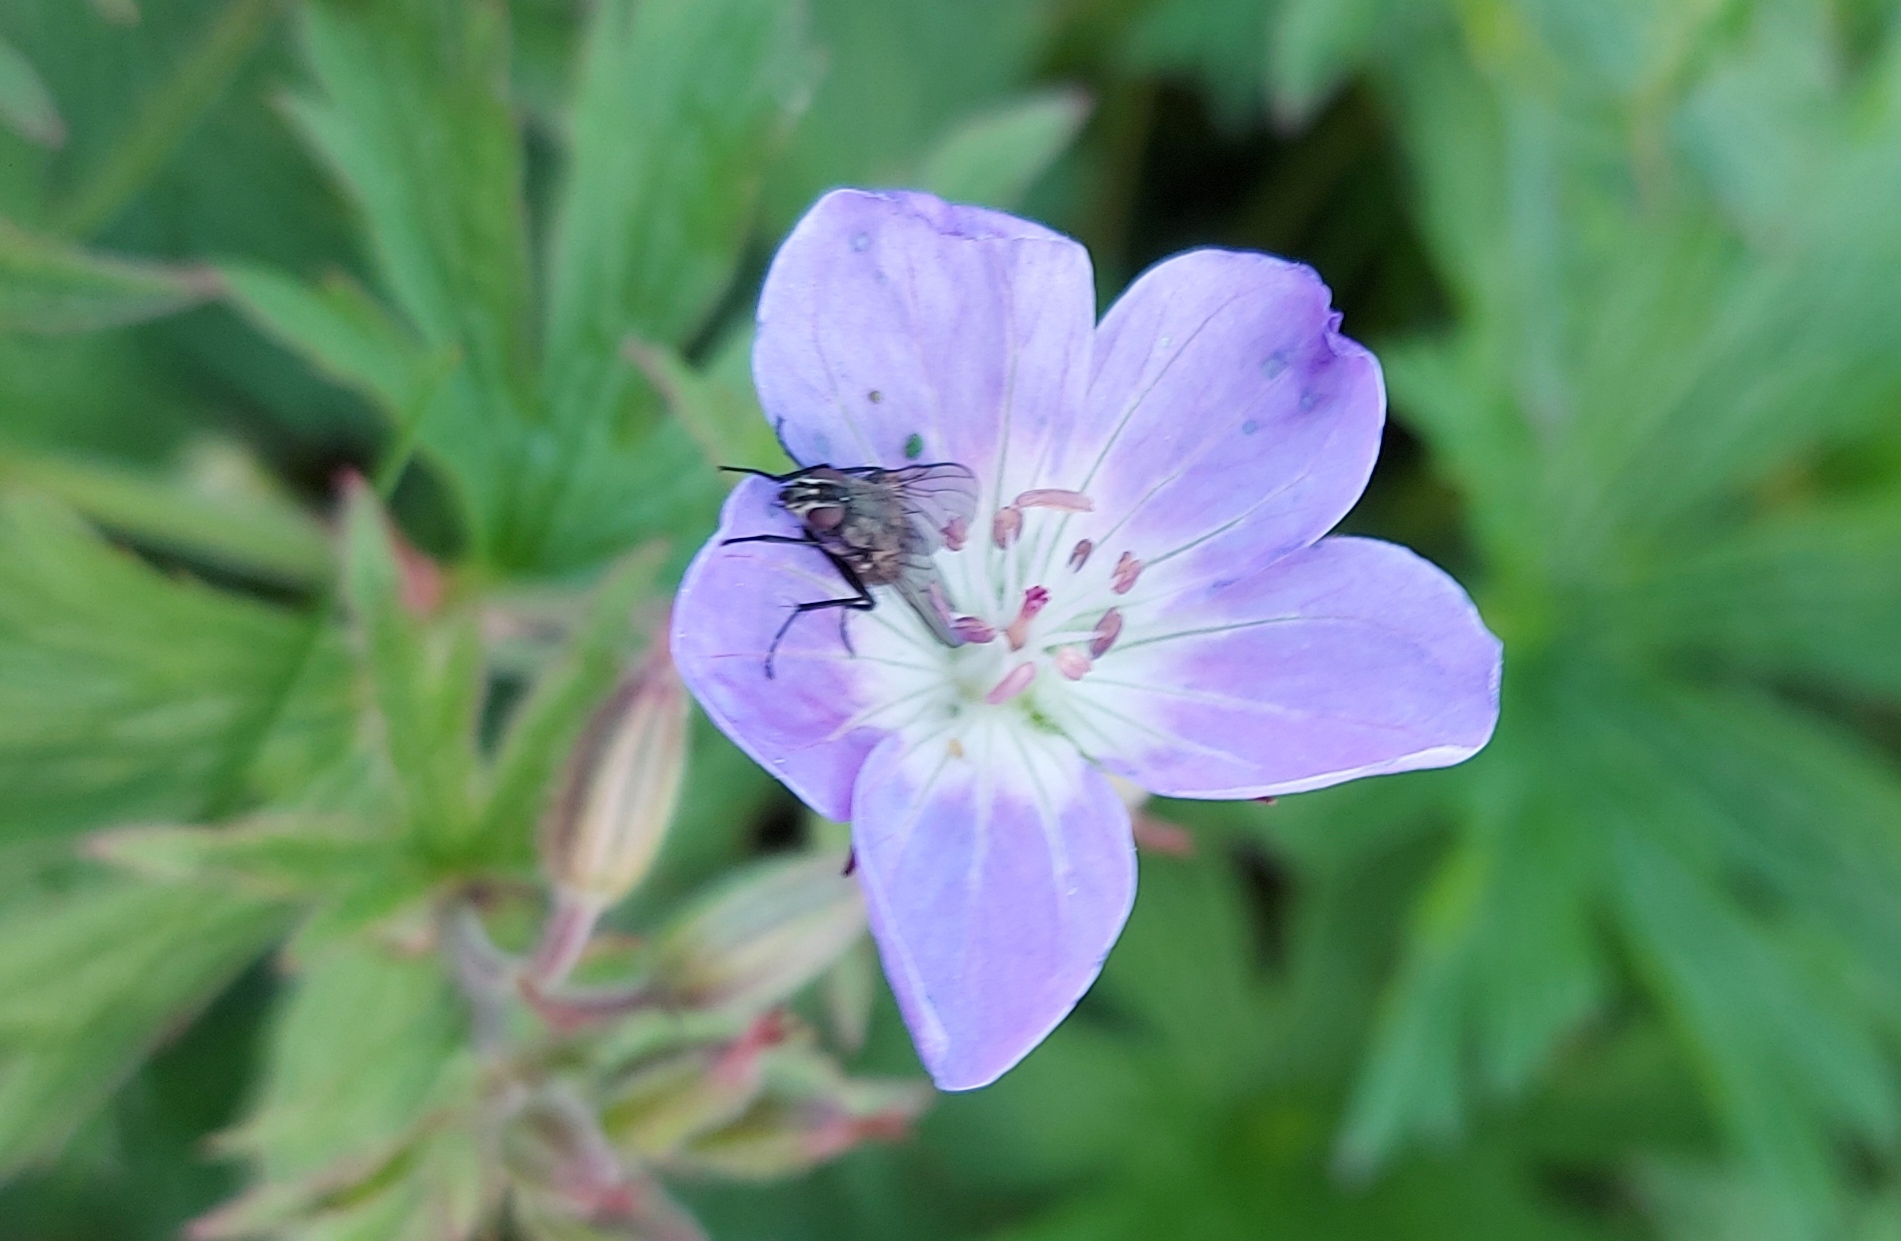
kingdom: Plantae
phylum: Tracheophyta
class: Magnoliopsida
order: Geraniales
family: Geraniaceae
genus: Geranium
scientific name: Geranium sylvaticum
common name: Wood crane's-bill
